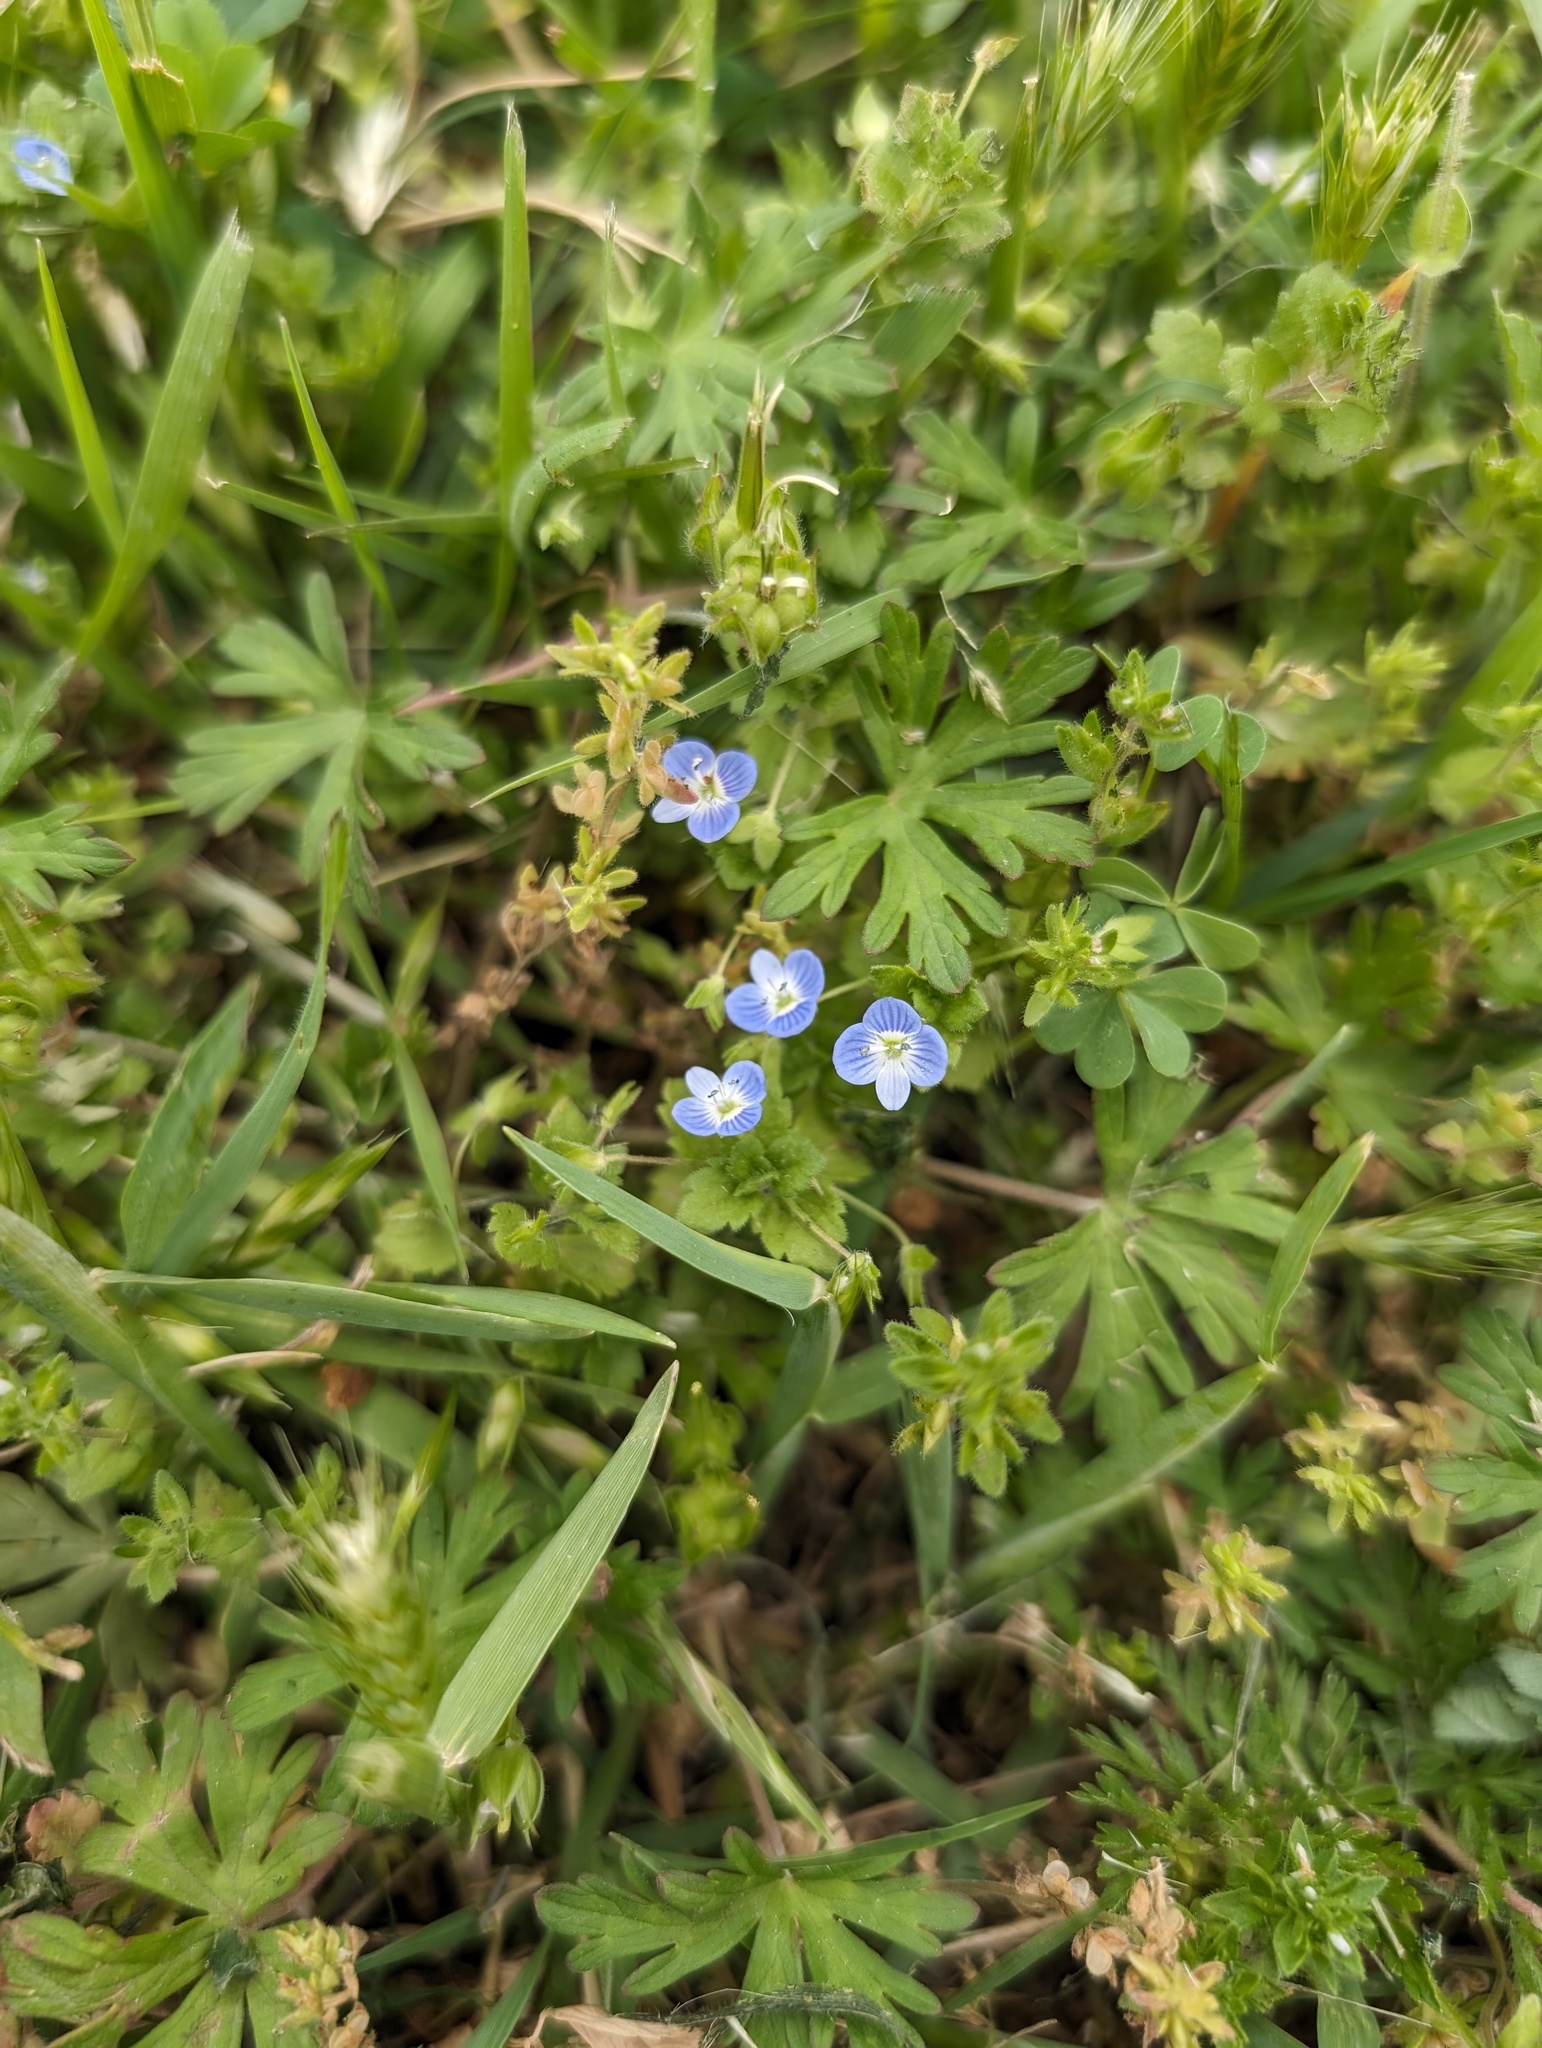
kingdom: Plantae
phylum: Tracheophyta
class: Magnoliopsida
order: Lamiales
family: Plantaginaceae
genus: Veronica
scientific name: Veronica persica
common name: Common field-speedwell
